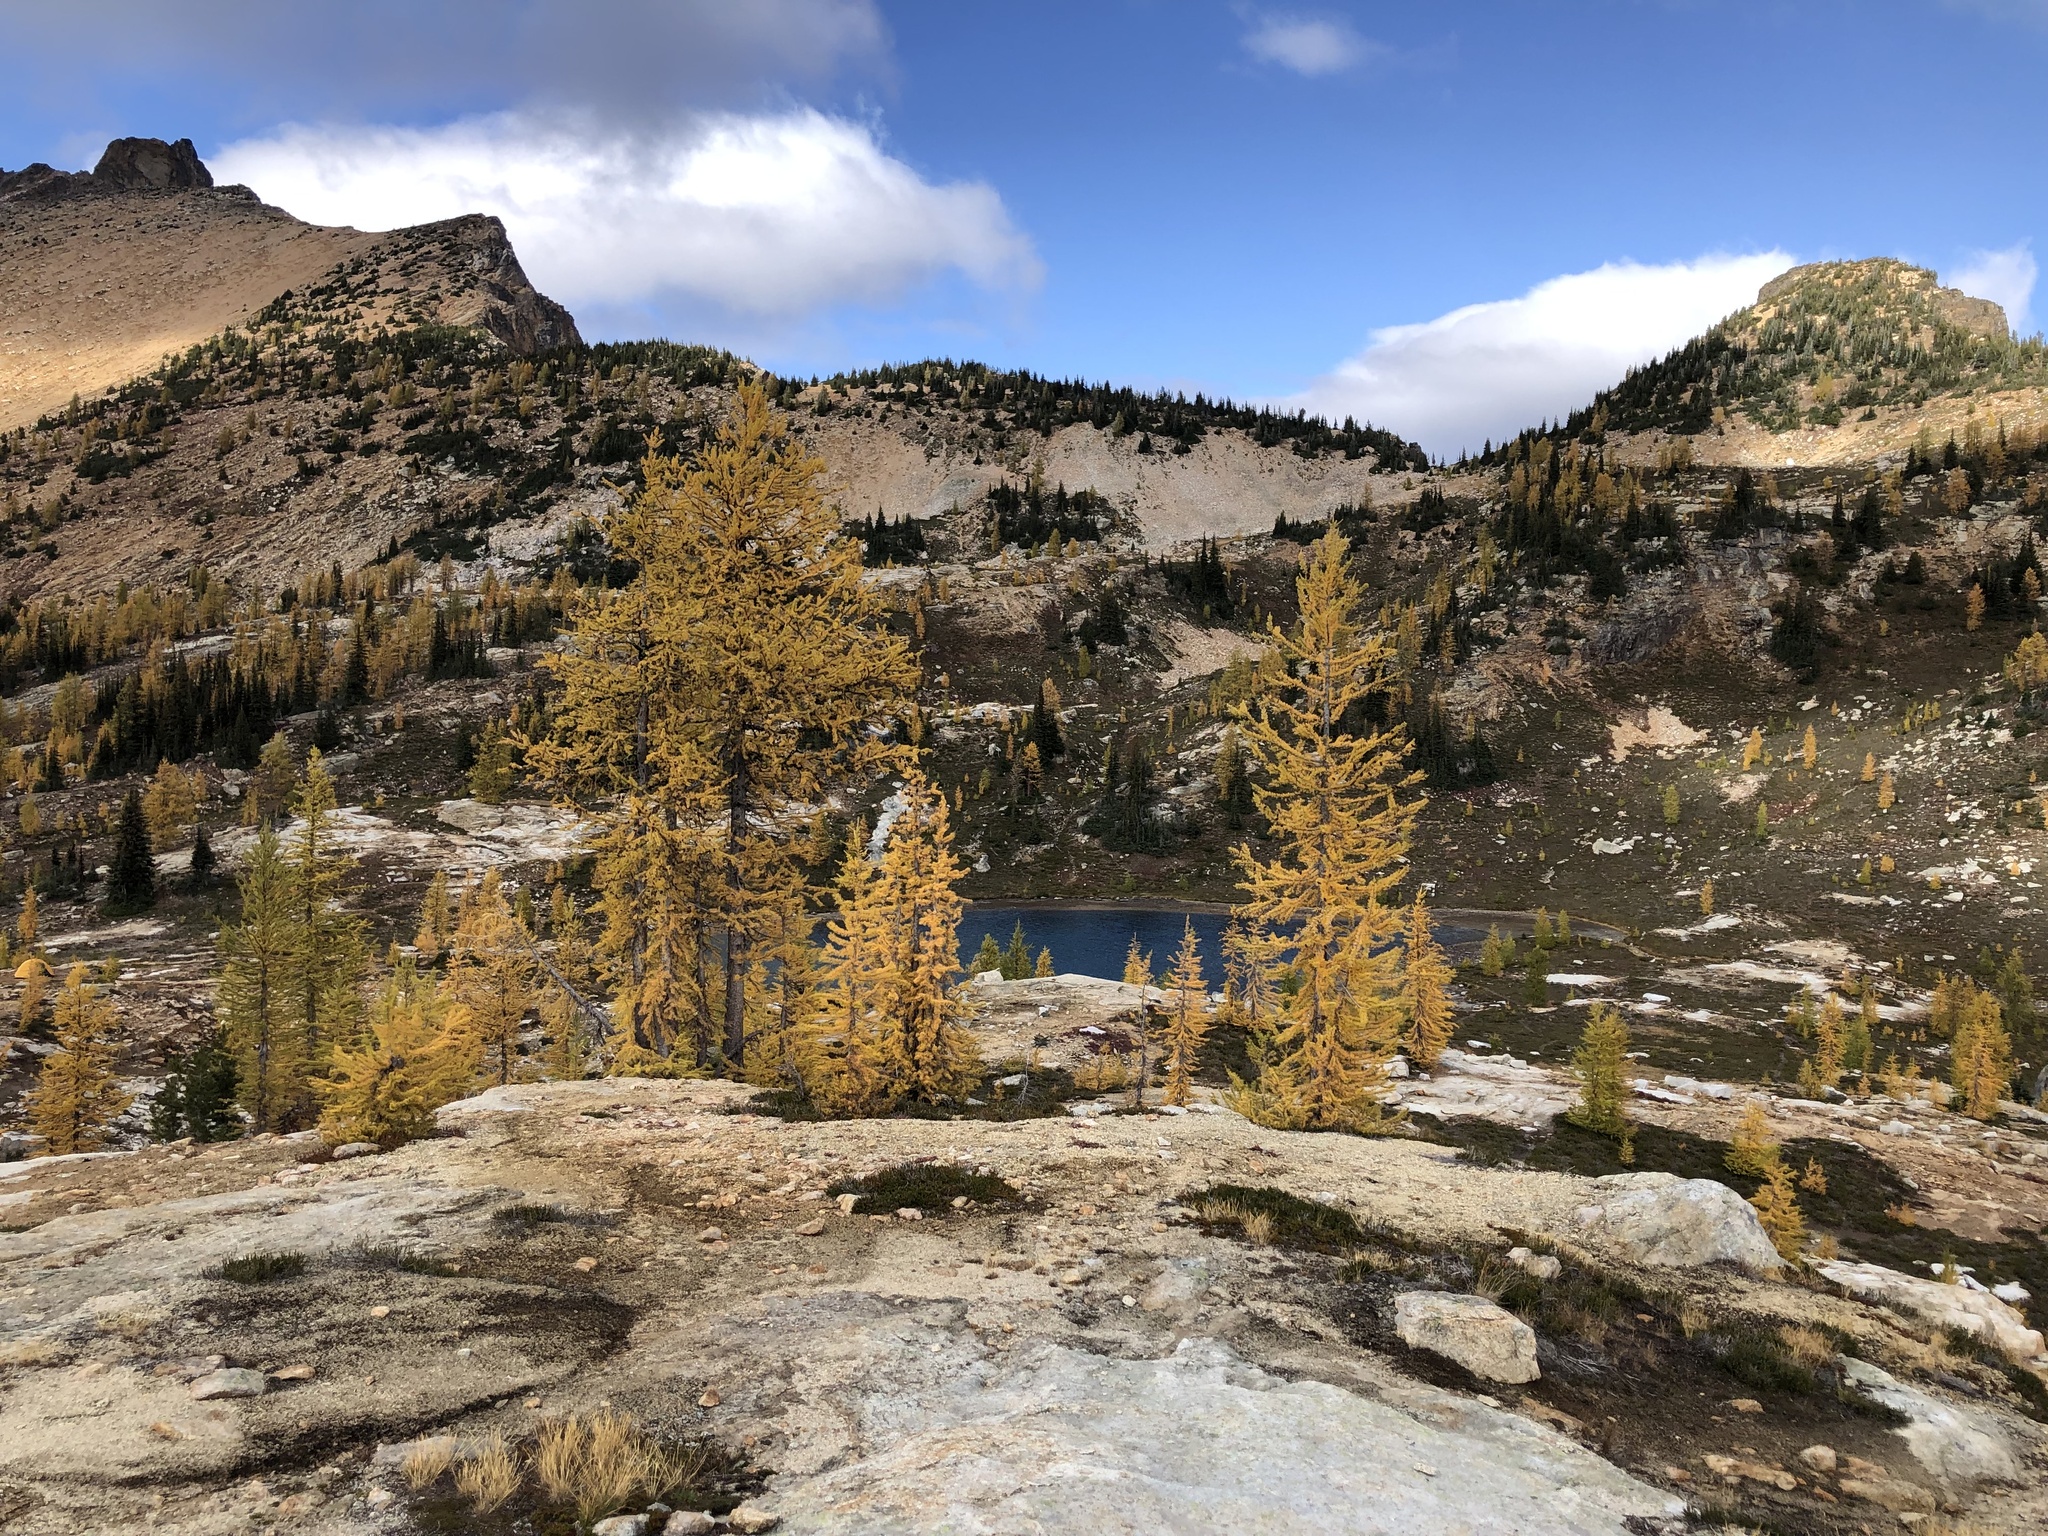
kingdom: Plantae
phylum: Tracheophyta
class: Pinopsida
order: Pinales
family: Pinaceae
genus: Larix
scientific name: Larix lyallii
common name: Alpine larch
